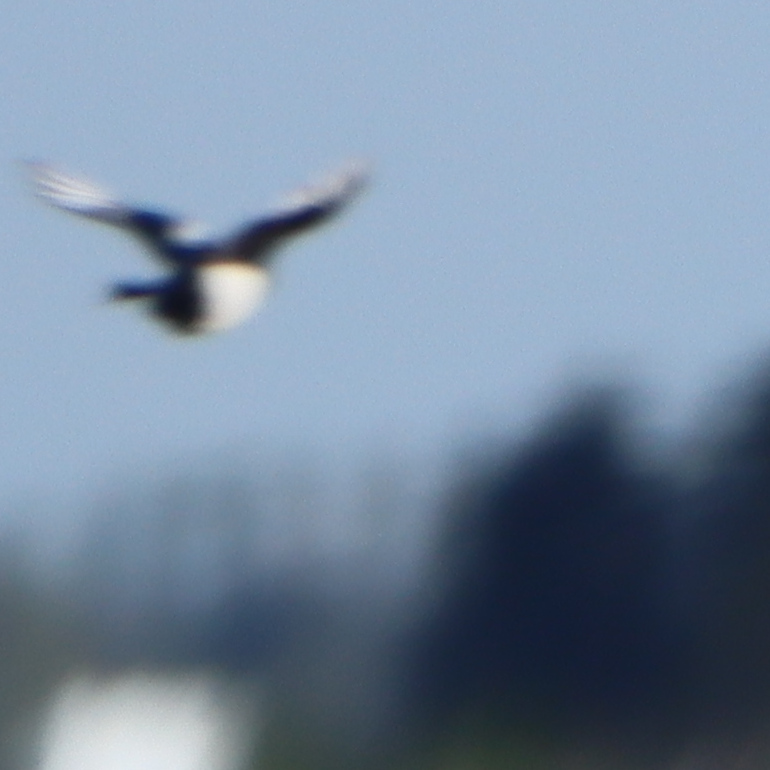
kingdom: Animalia
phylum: Chordata
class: Aves
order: Passeriformes
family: Corvidae
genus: Pica
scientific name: Pica hudsonia
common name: Black-billed magpie
